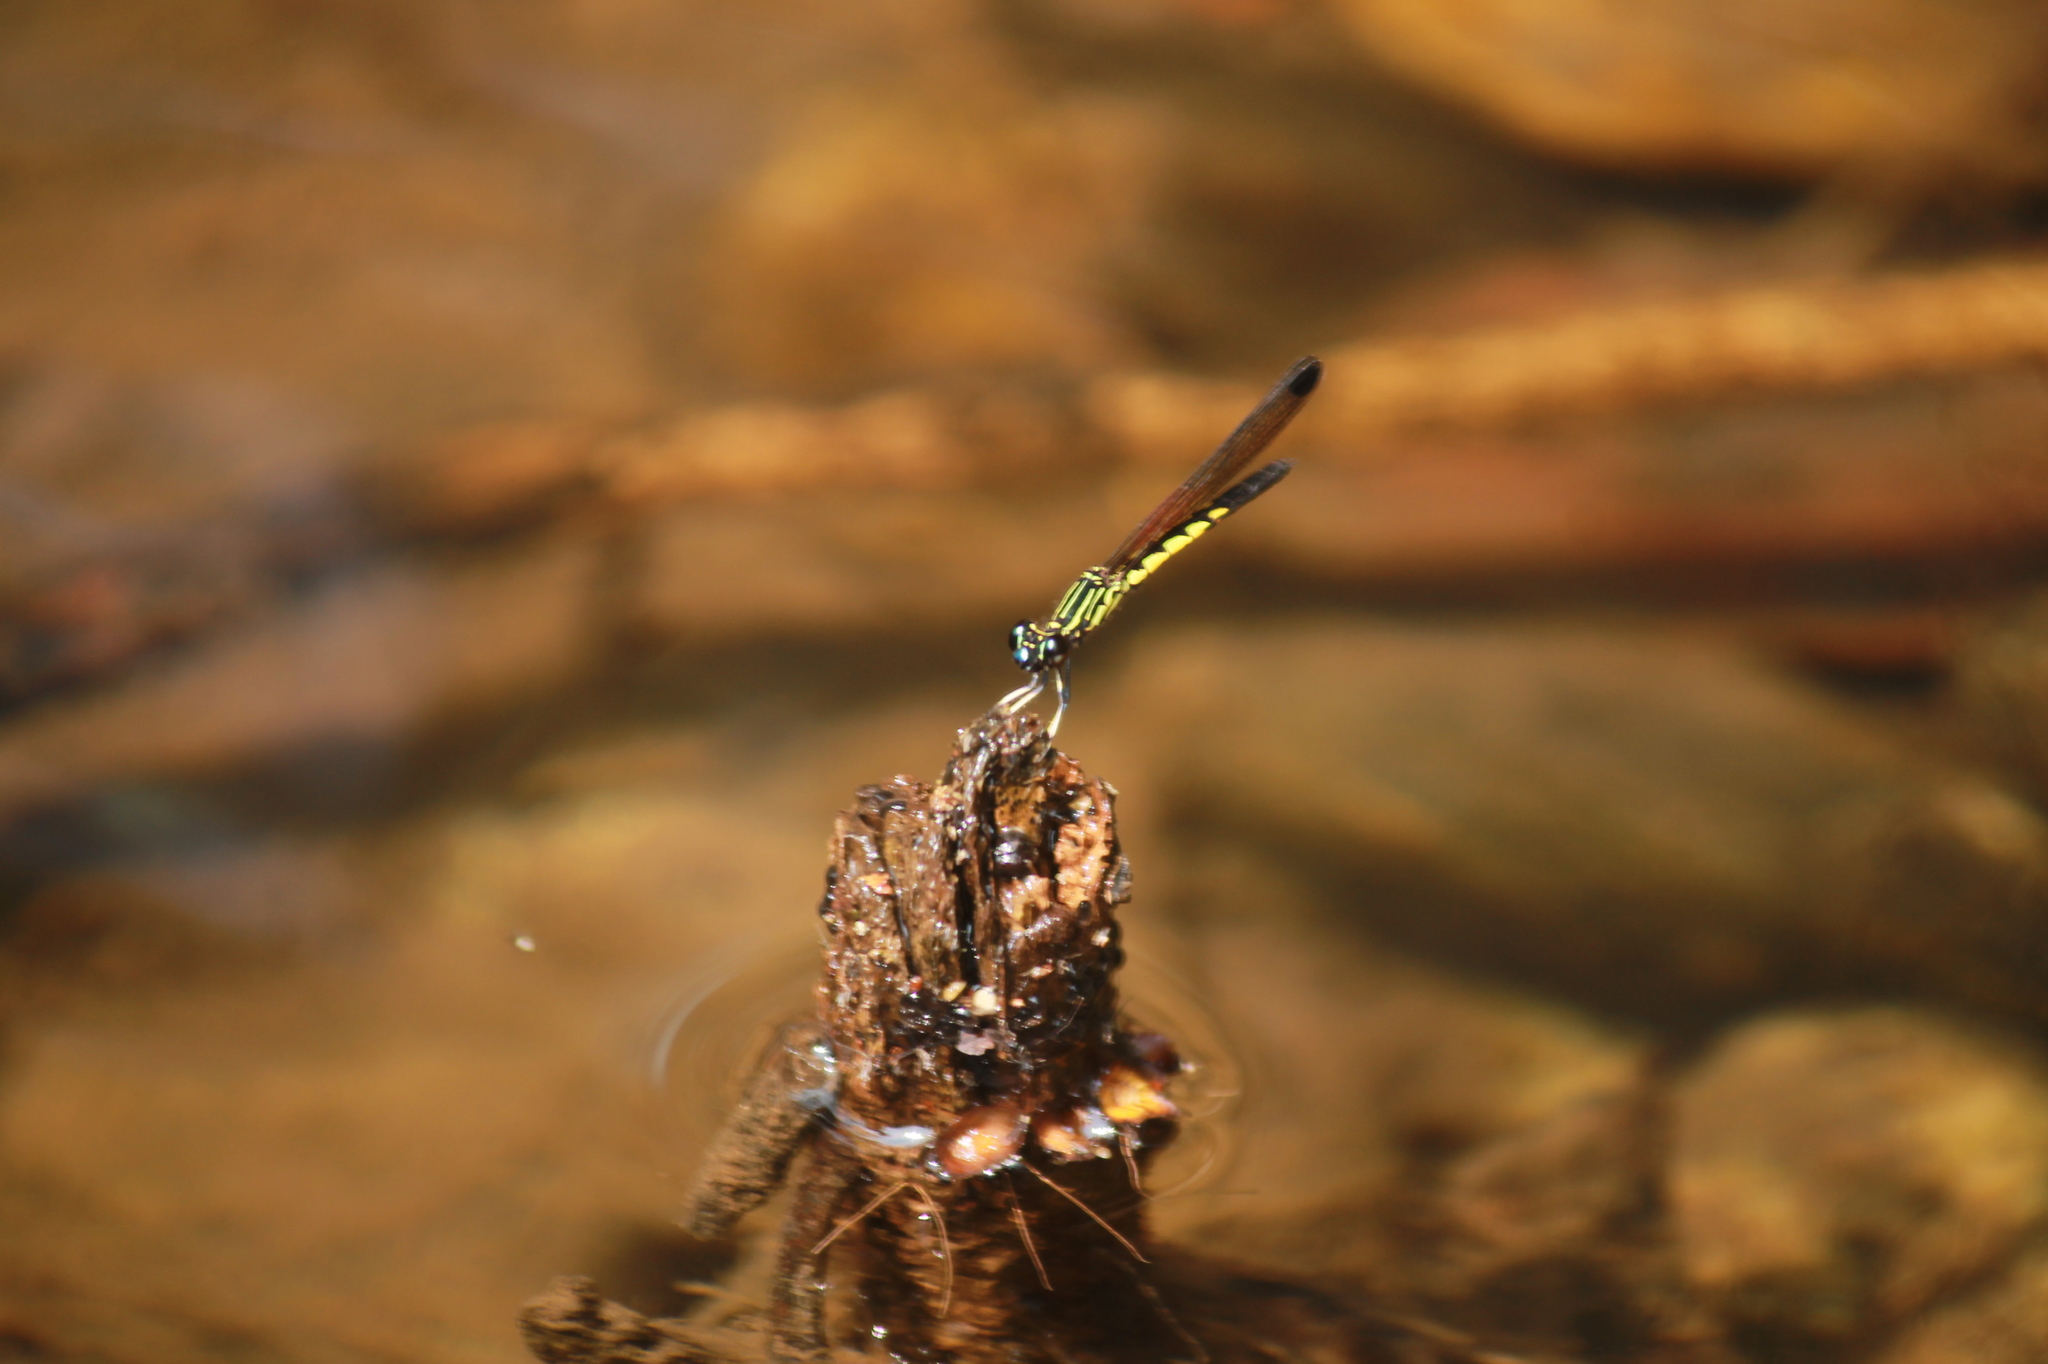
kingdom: Animalia
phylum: Arthropoda
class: Insecta
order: Odonata
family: Chlorocyphidae
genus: Libellago
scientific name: Libellago indica
